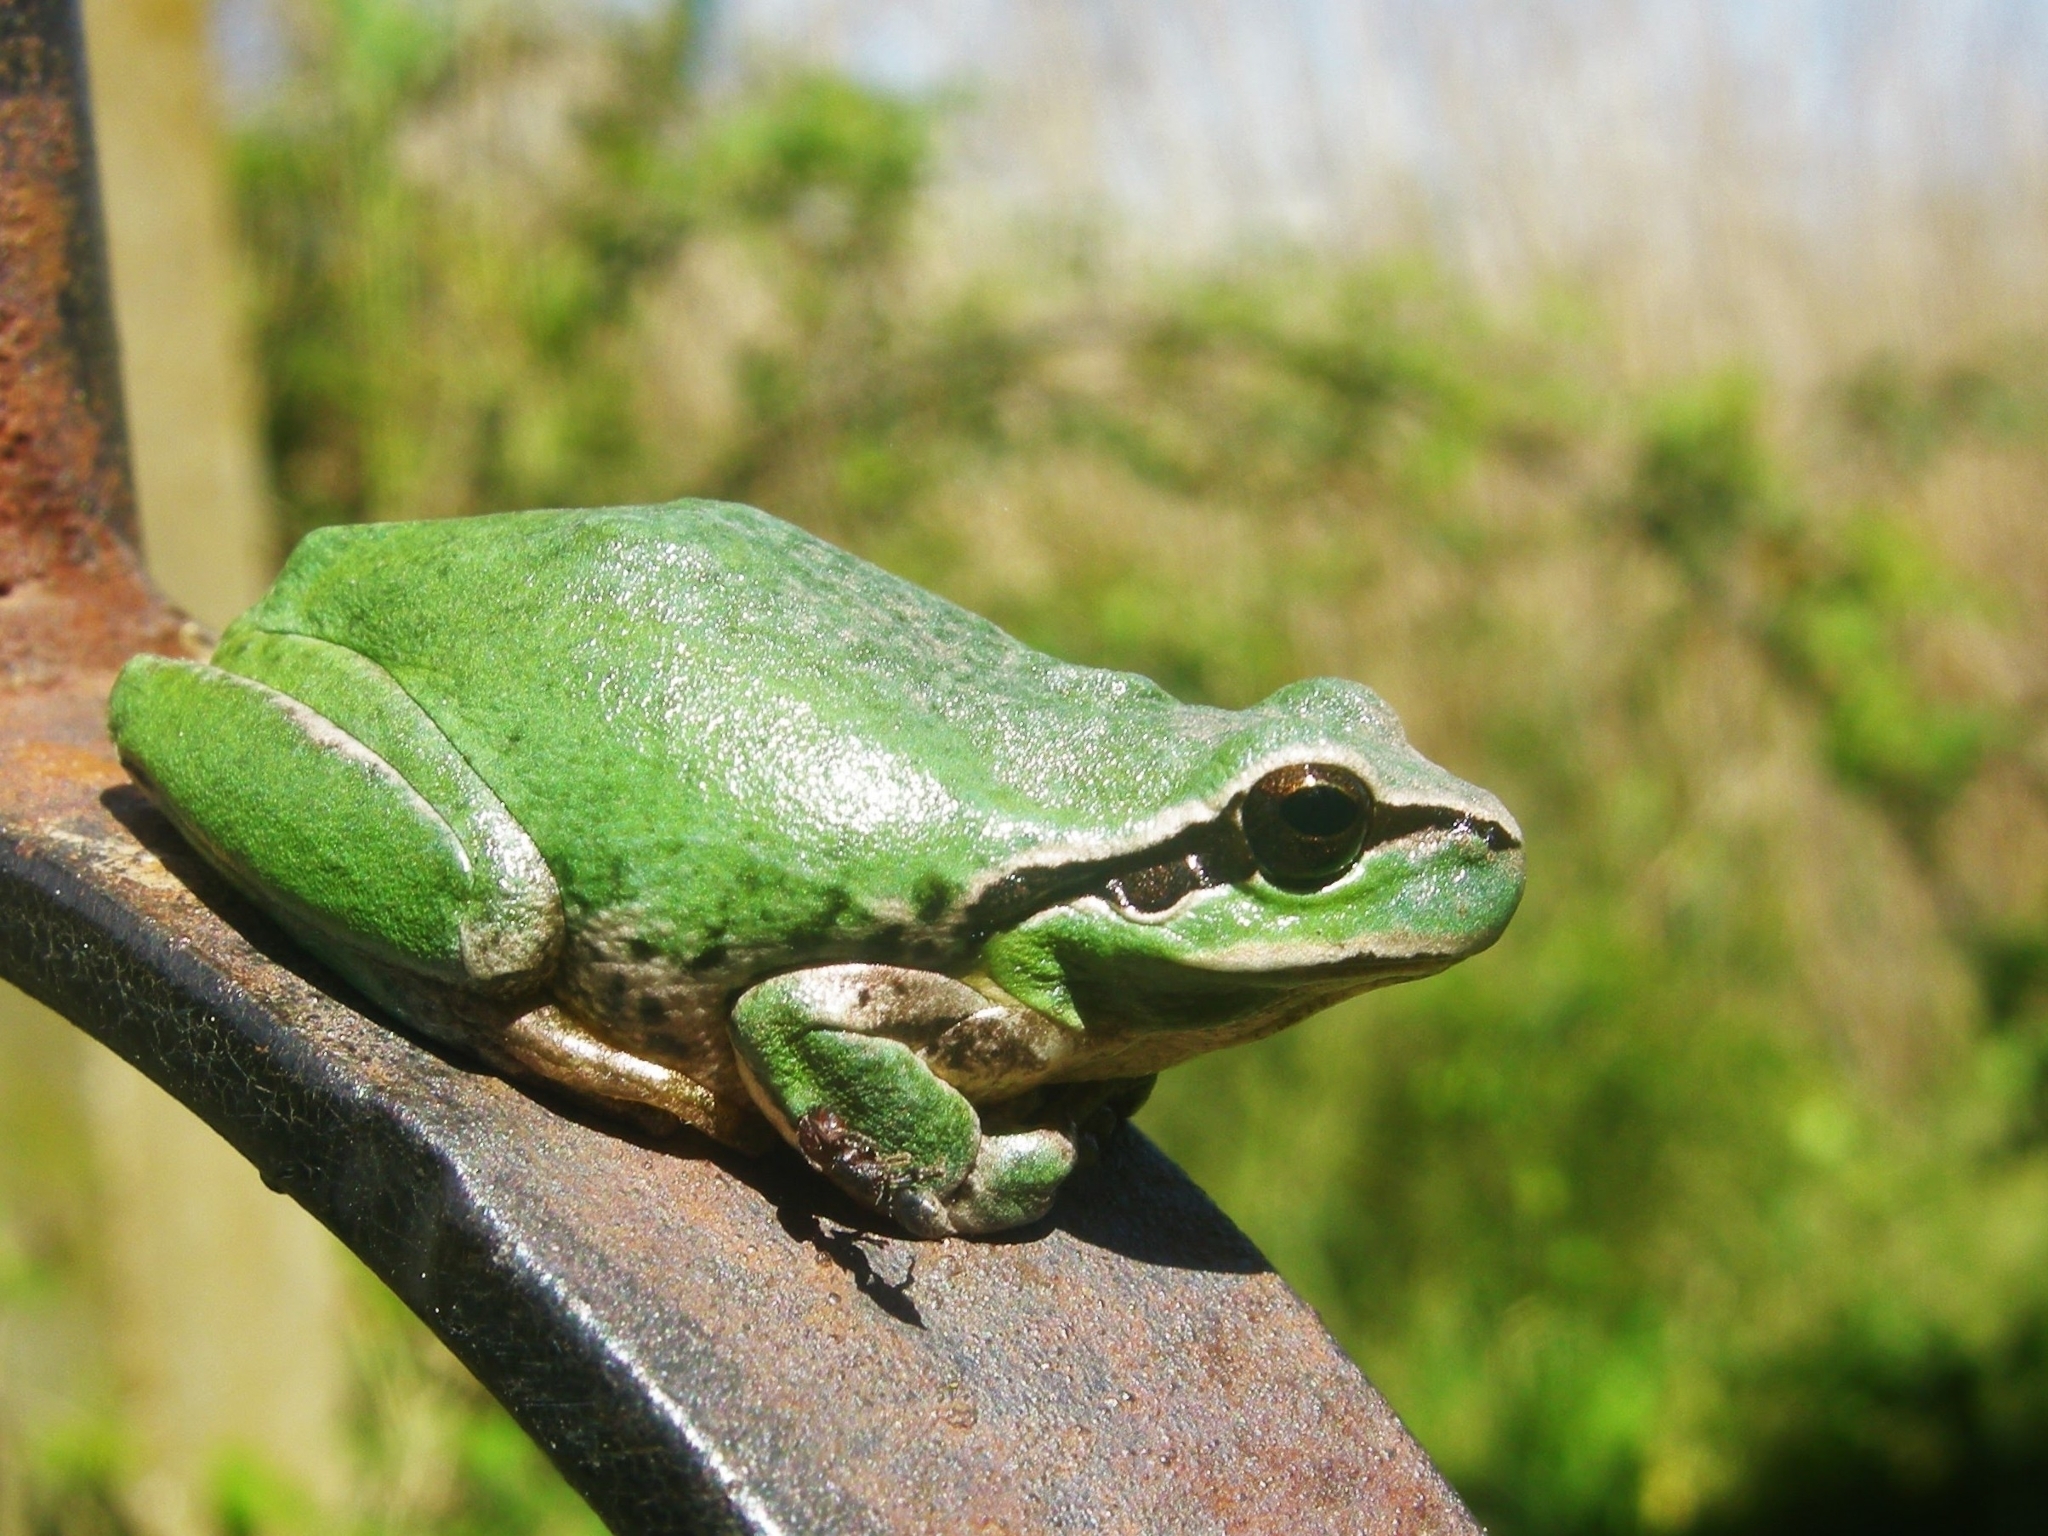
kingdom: Animalia
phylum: Chordata
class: Amphibia
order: Anura
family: Hylidae
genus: Hyla
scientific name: Hyla meridionalis
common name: Stripeless tree frog
